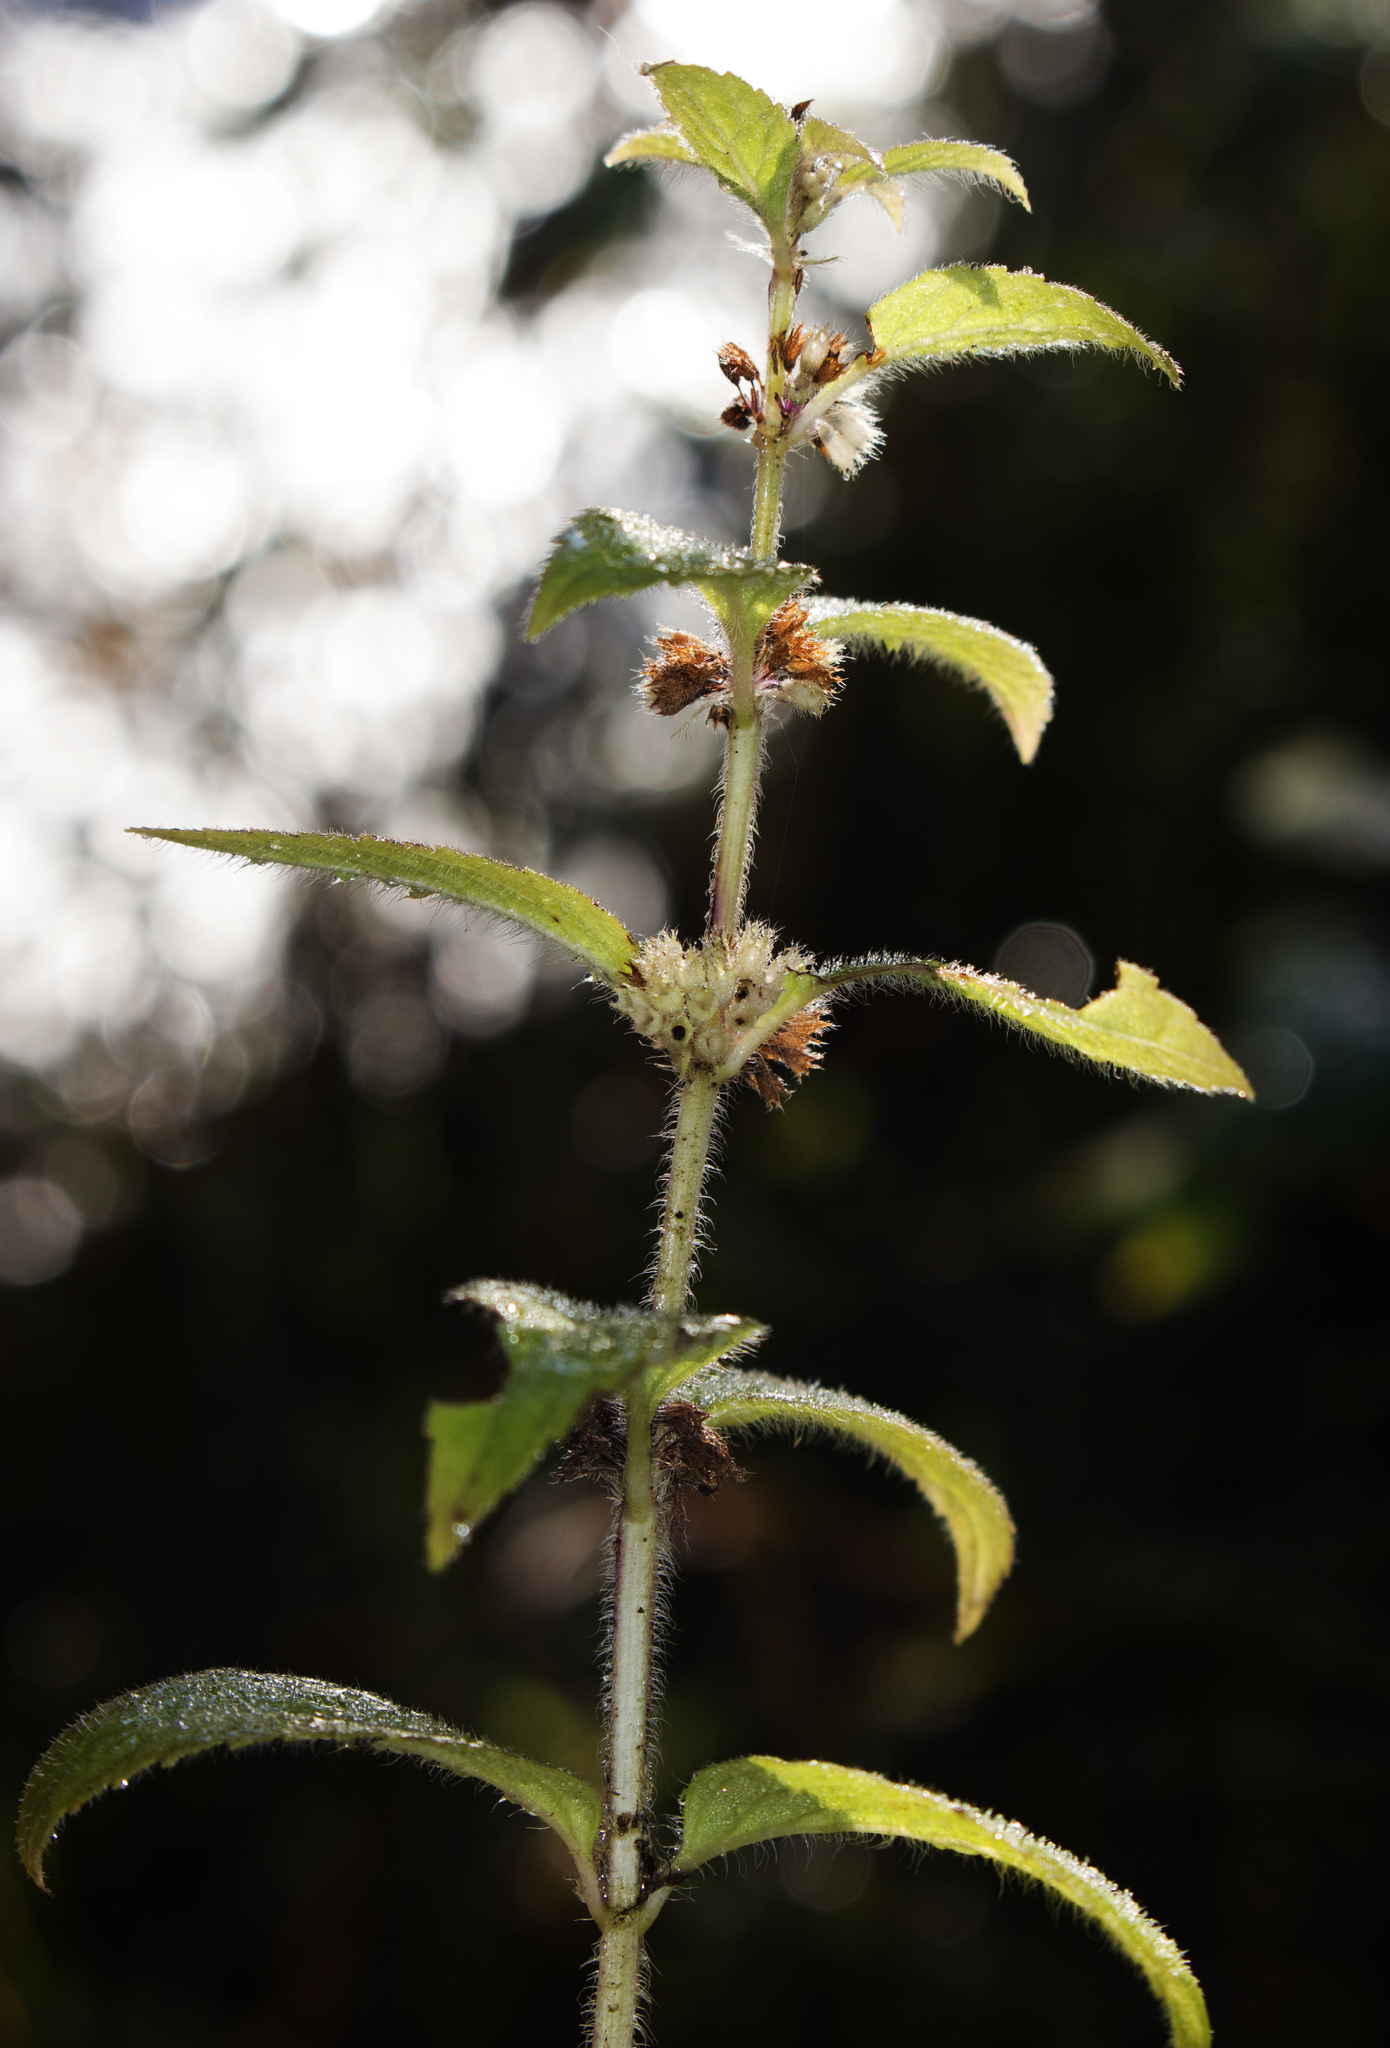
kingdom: Plantae
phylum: Tracheophyta
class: Magnoliopsida
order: Lamiales
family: Lamiaceae
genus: Stachys
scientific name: Stachys palustris
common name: Marsh woundwort
